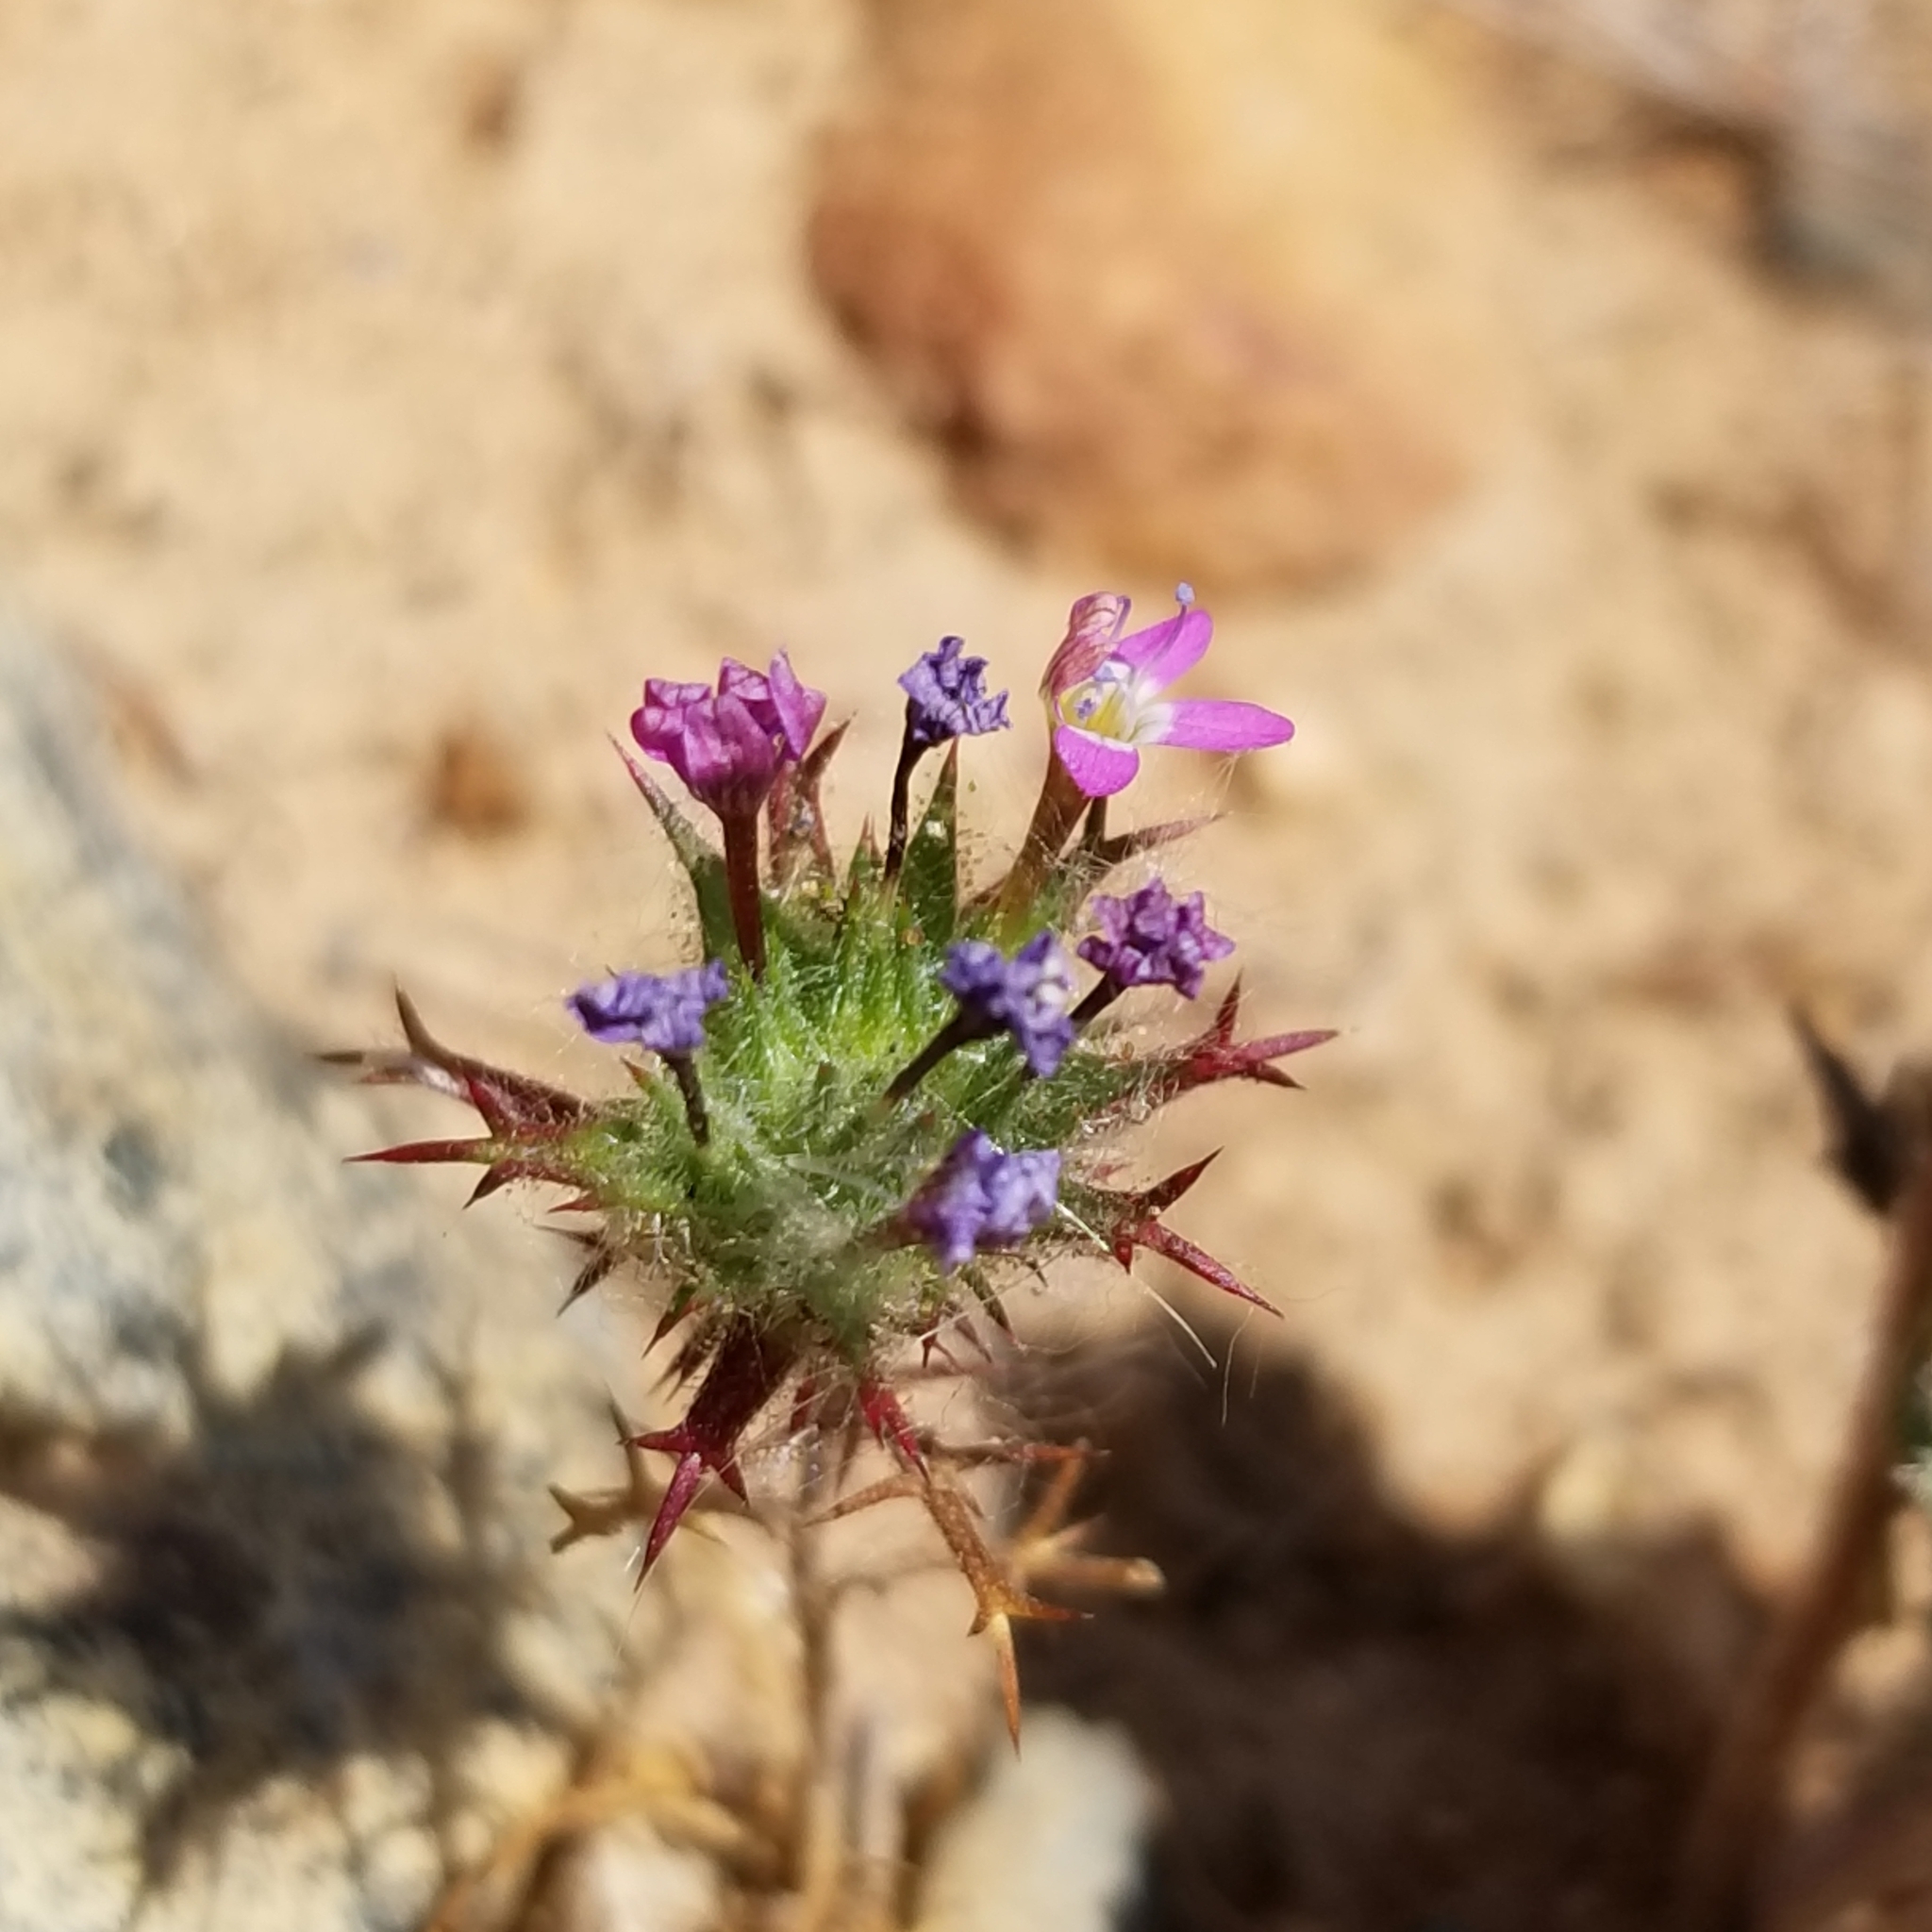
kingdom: Plantae
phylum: Tracheophyta
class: Magnoliopsida
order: Ericales
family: Polemoniaceae
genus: Navarretia
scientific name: Navarretia hamata
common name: Hooked navarretia
